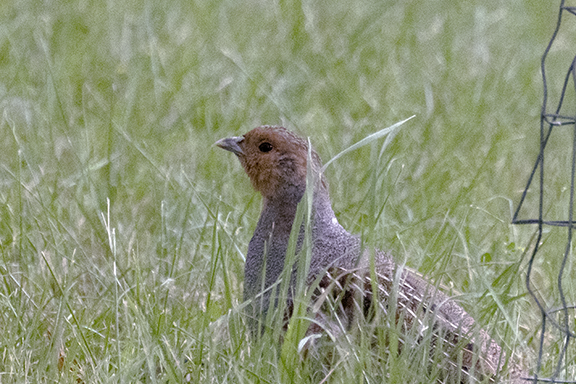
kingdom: Animalia
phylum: Chordata
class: Aves
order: Galliformes
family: Phasianidae
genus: Perdix
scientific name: Perdix perdix
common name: Grey partridge
